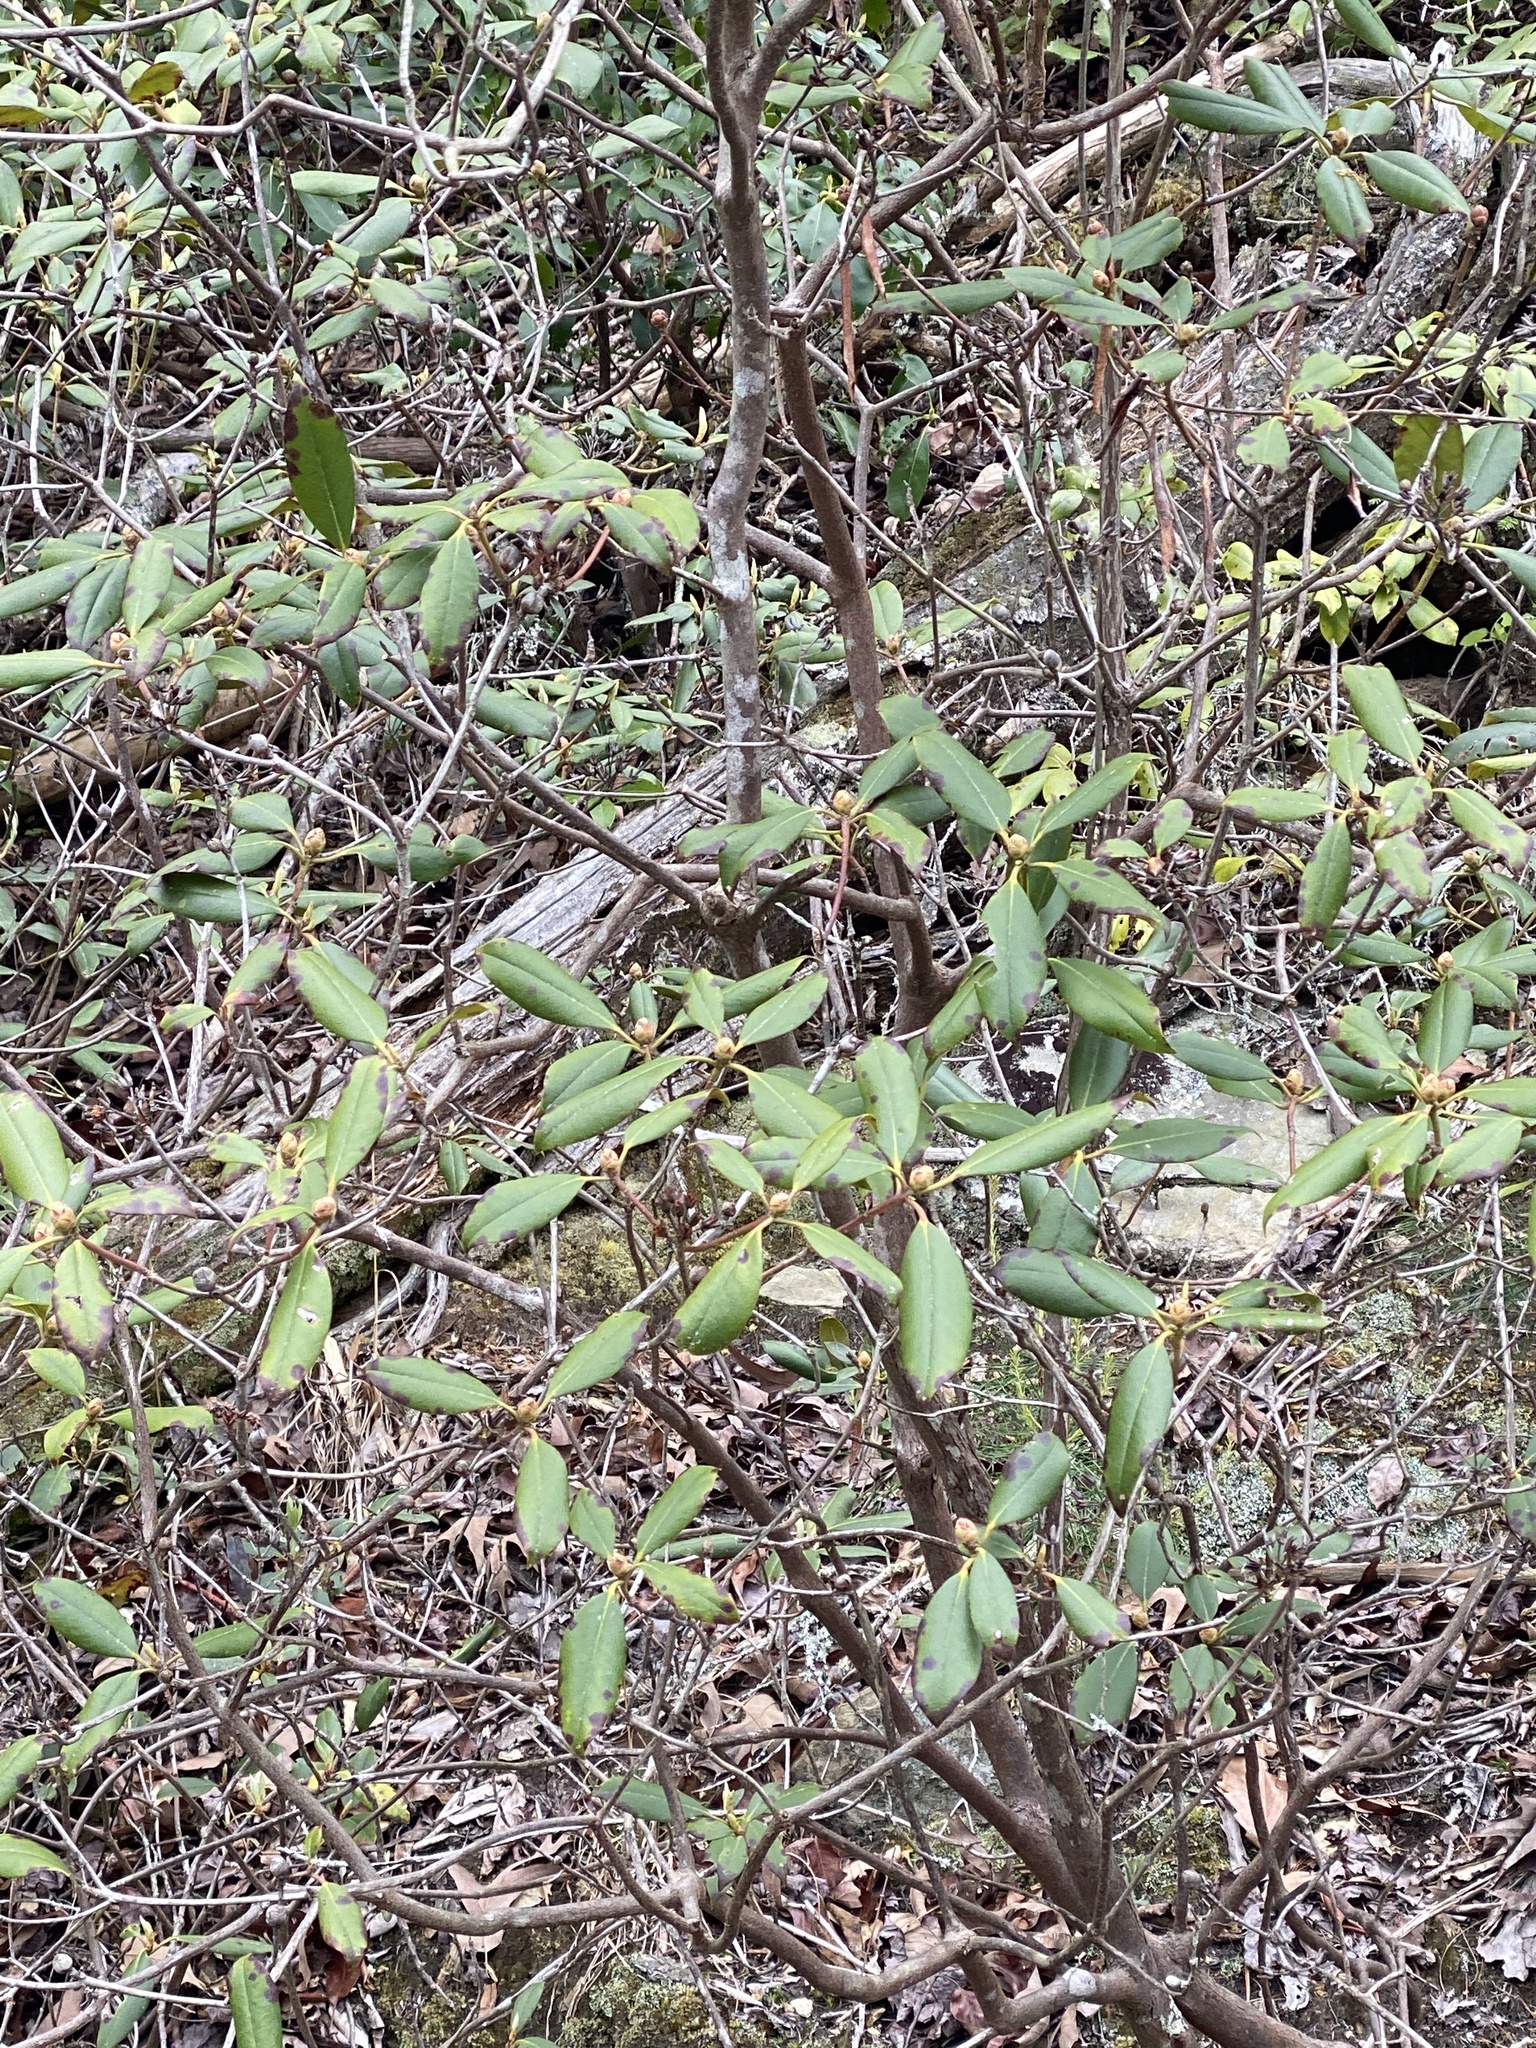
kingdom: Plantae
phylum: Tracheophyta
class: Magnoliopsida
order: Ericales
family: Ericaceae
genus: Rhododendron
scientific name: Rhododendron minus
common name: Piedmont rhododendron
